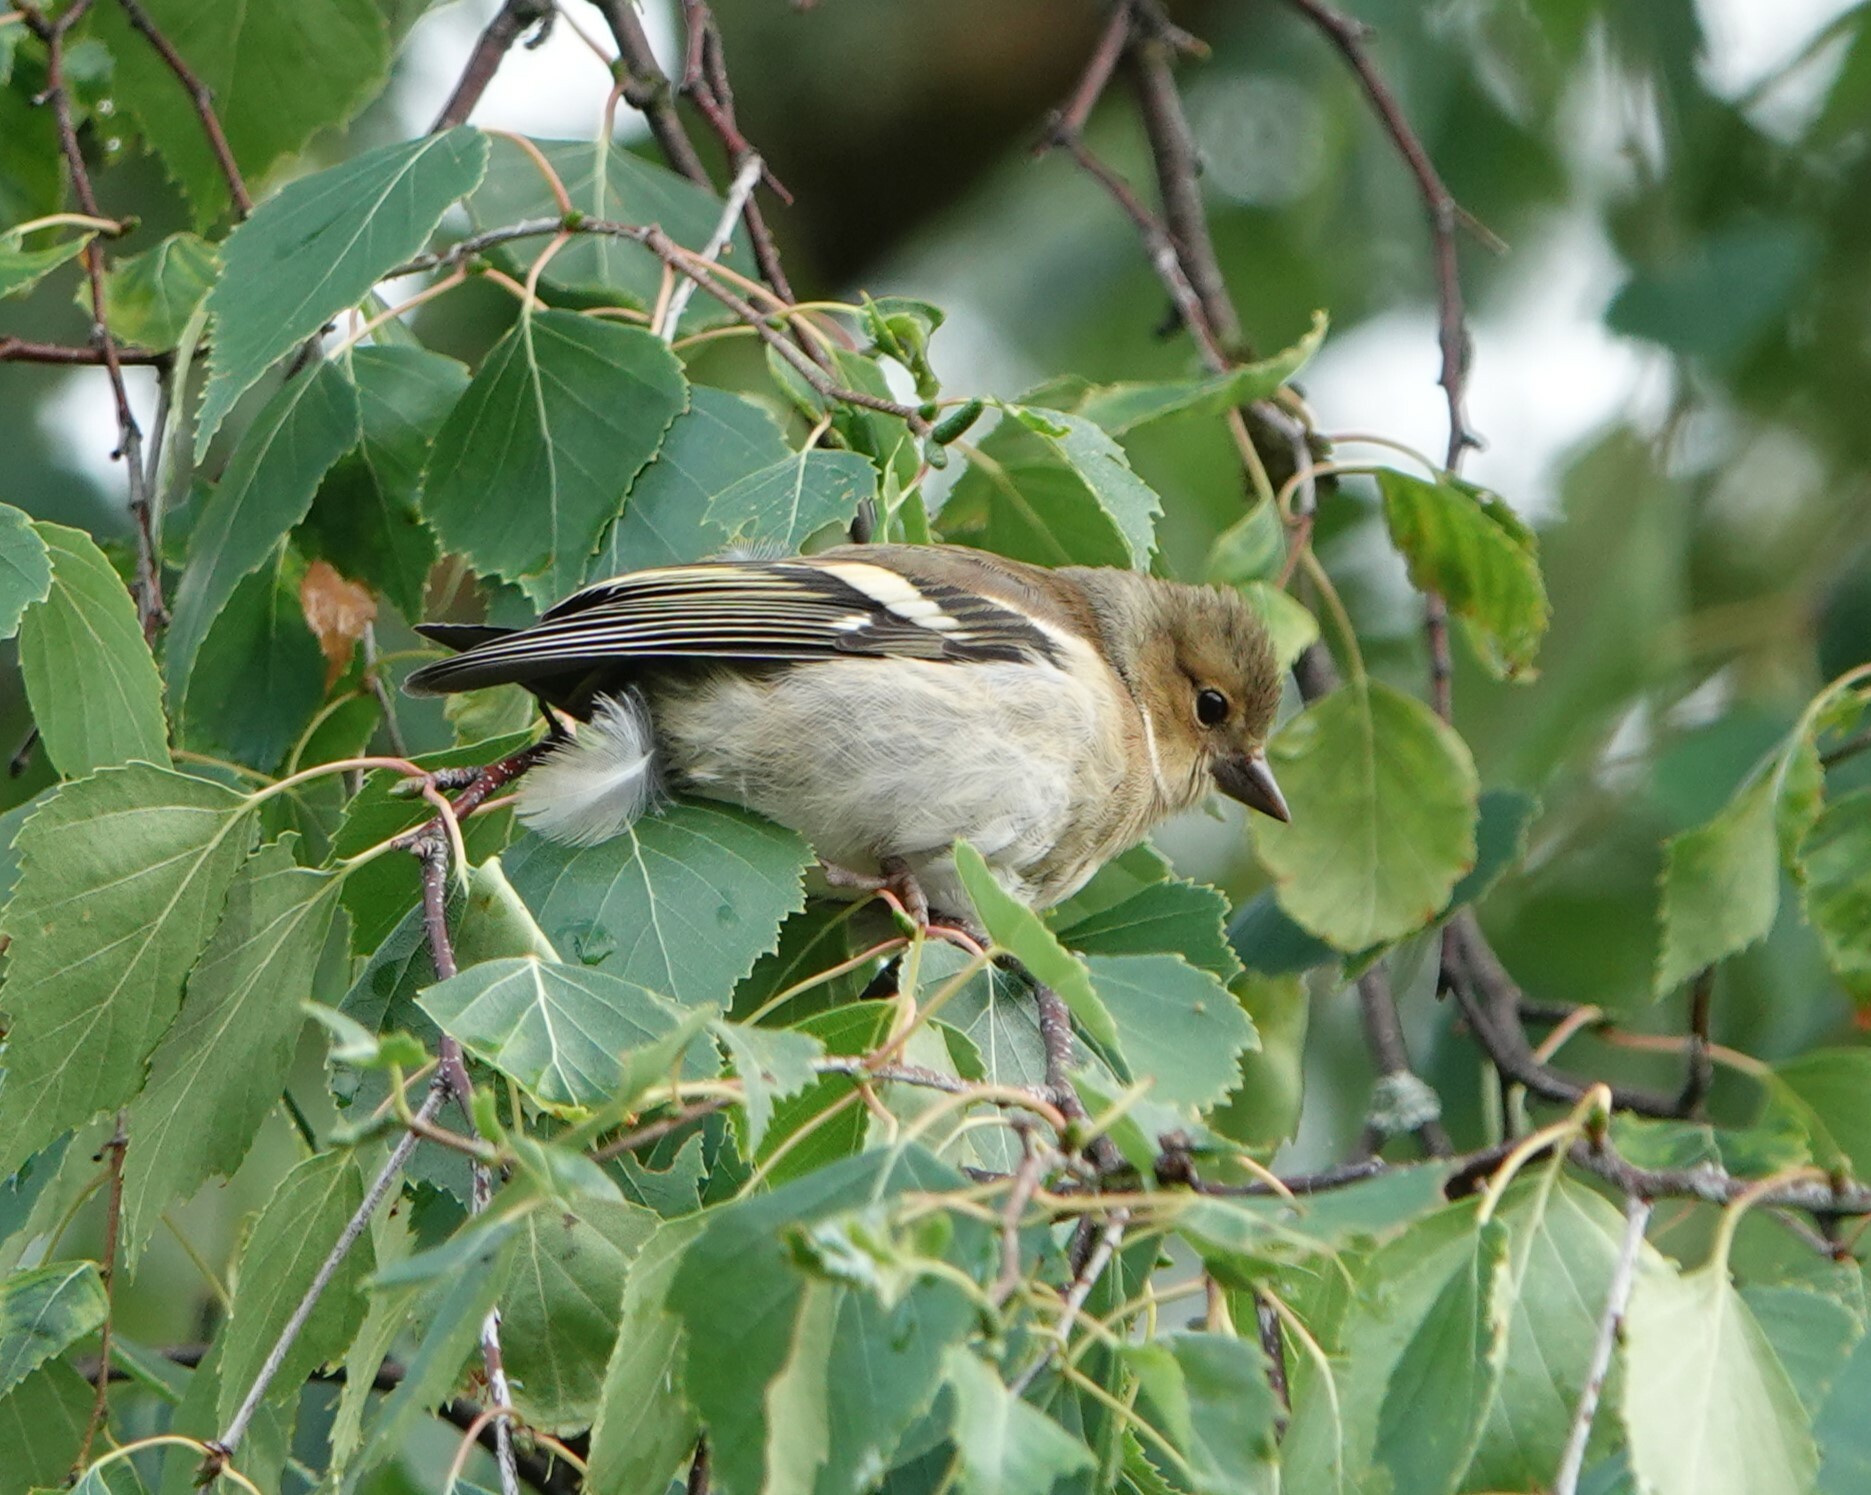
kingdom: Animalia
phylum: Chordata
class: Aves
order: Passeriformes
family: Fringillidae
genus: Fringilla
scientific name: Fringilla coelebs
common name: Common chaffinch
